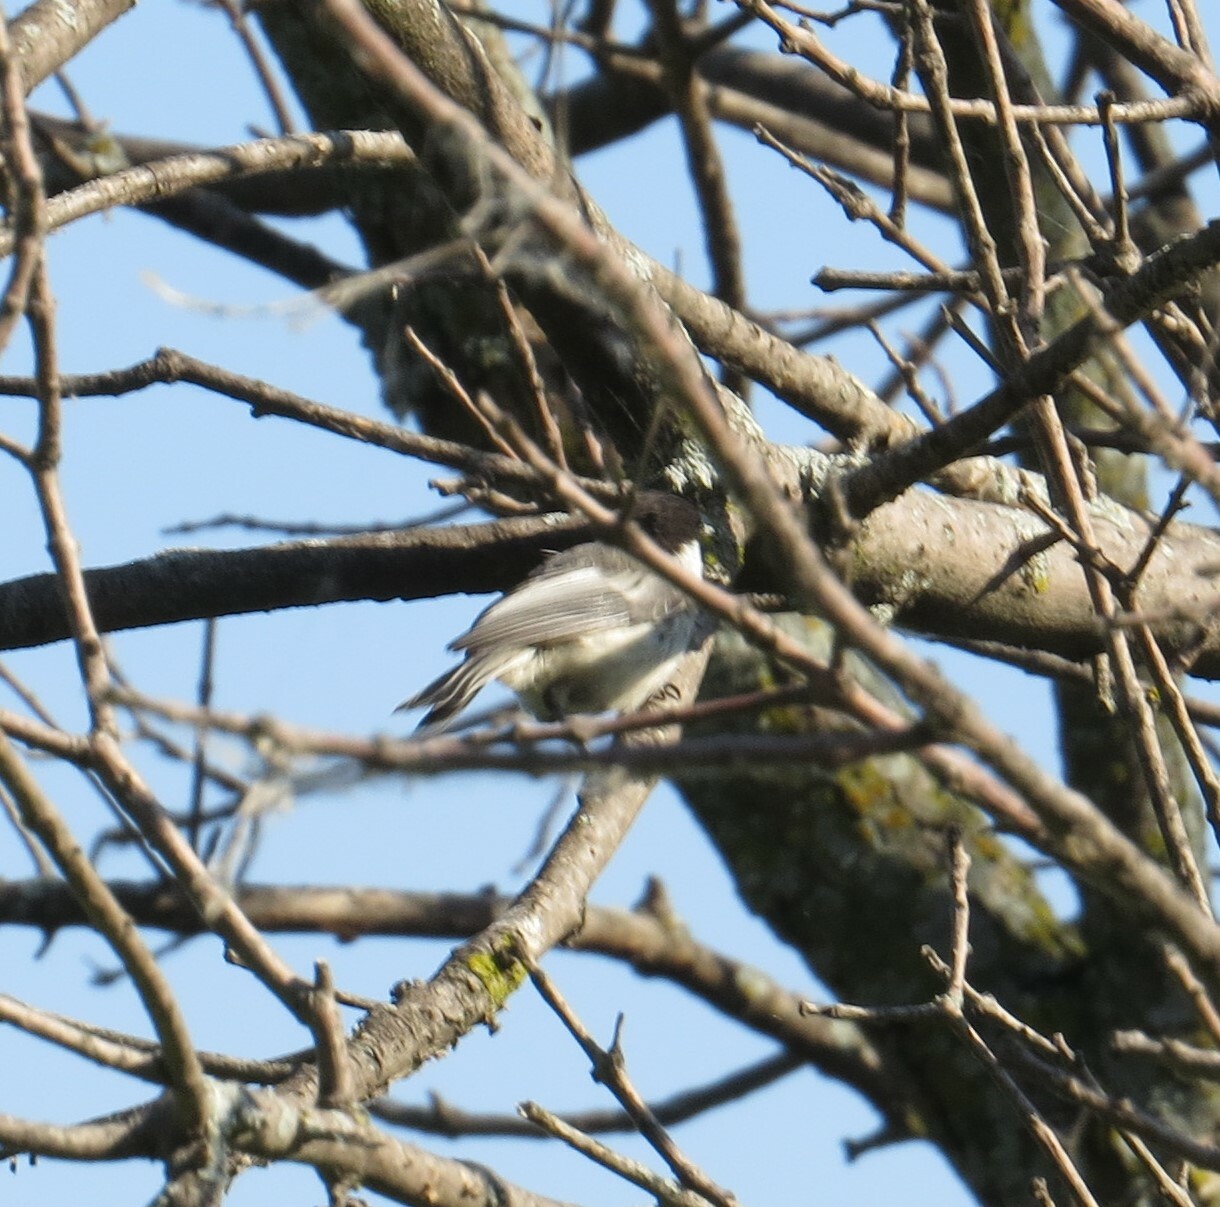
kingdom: Animalia
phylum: Chordata
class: Aves
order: Passeriformes
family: Paridae
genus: Poecile
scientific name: Poecile atricapillus
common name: Black-capped chickadee
